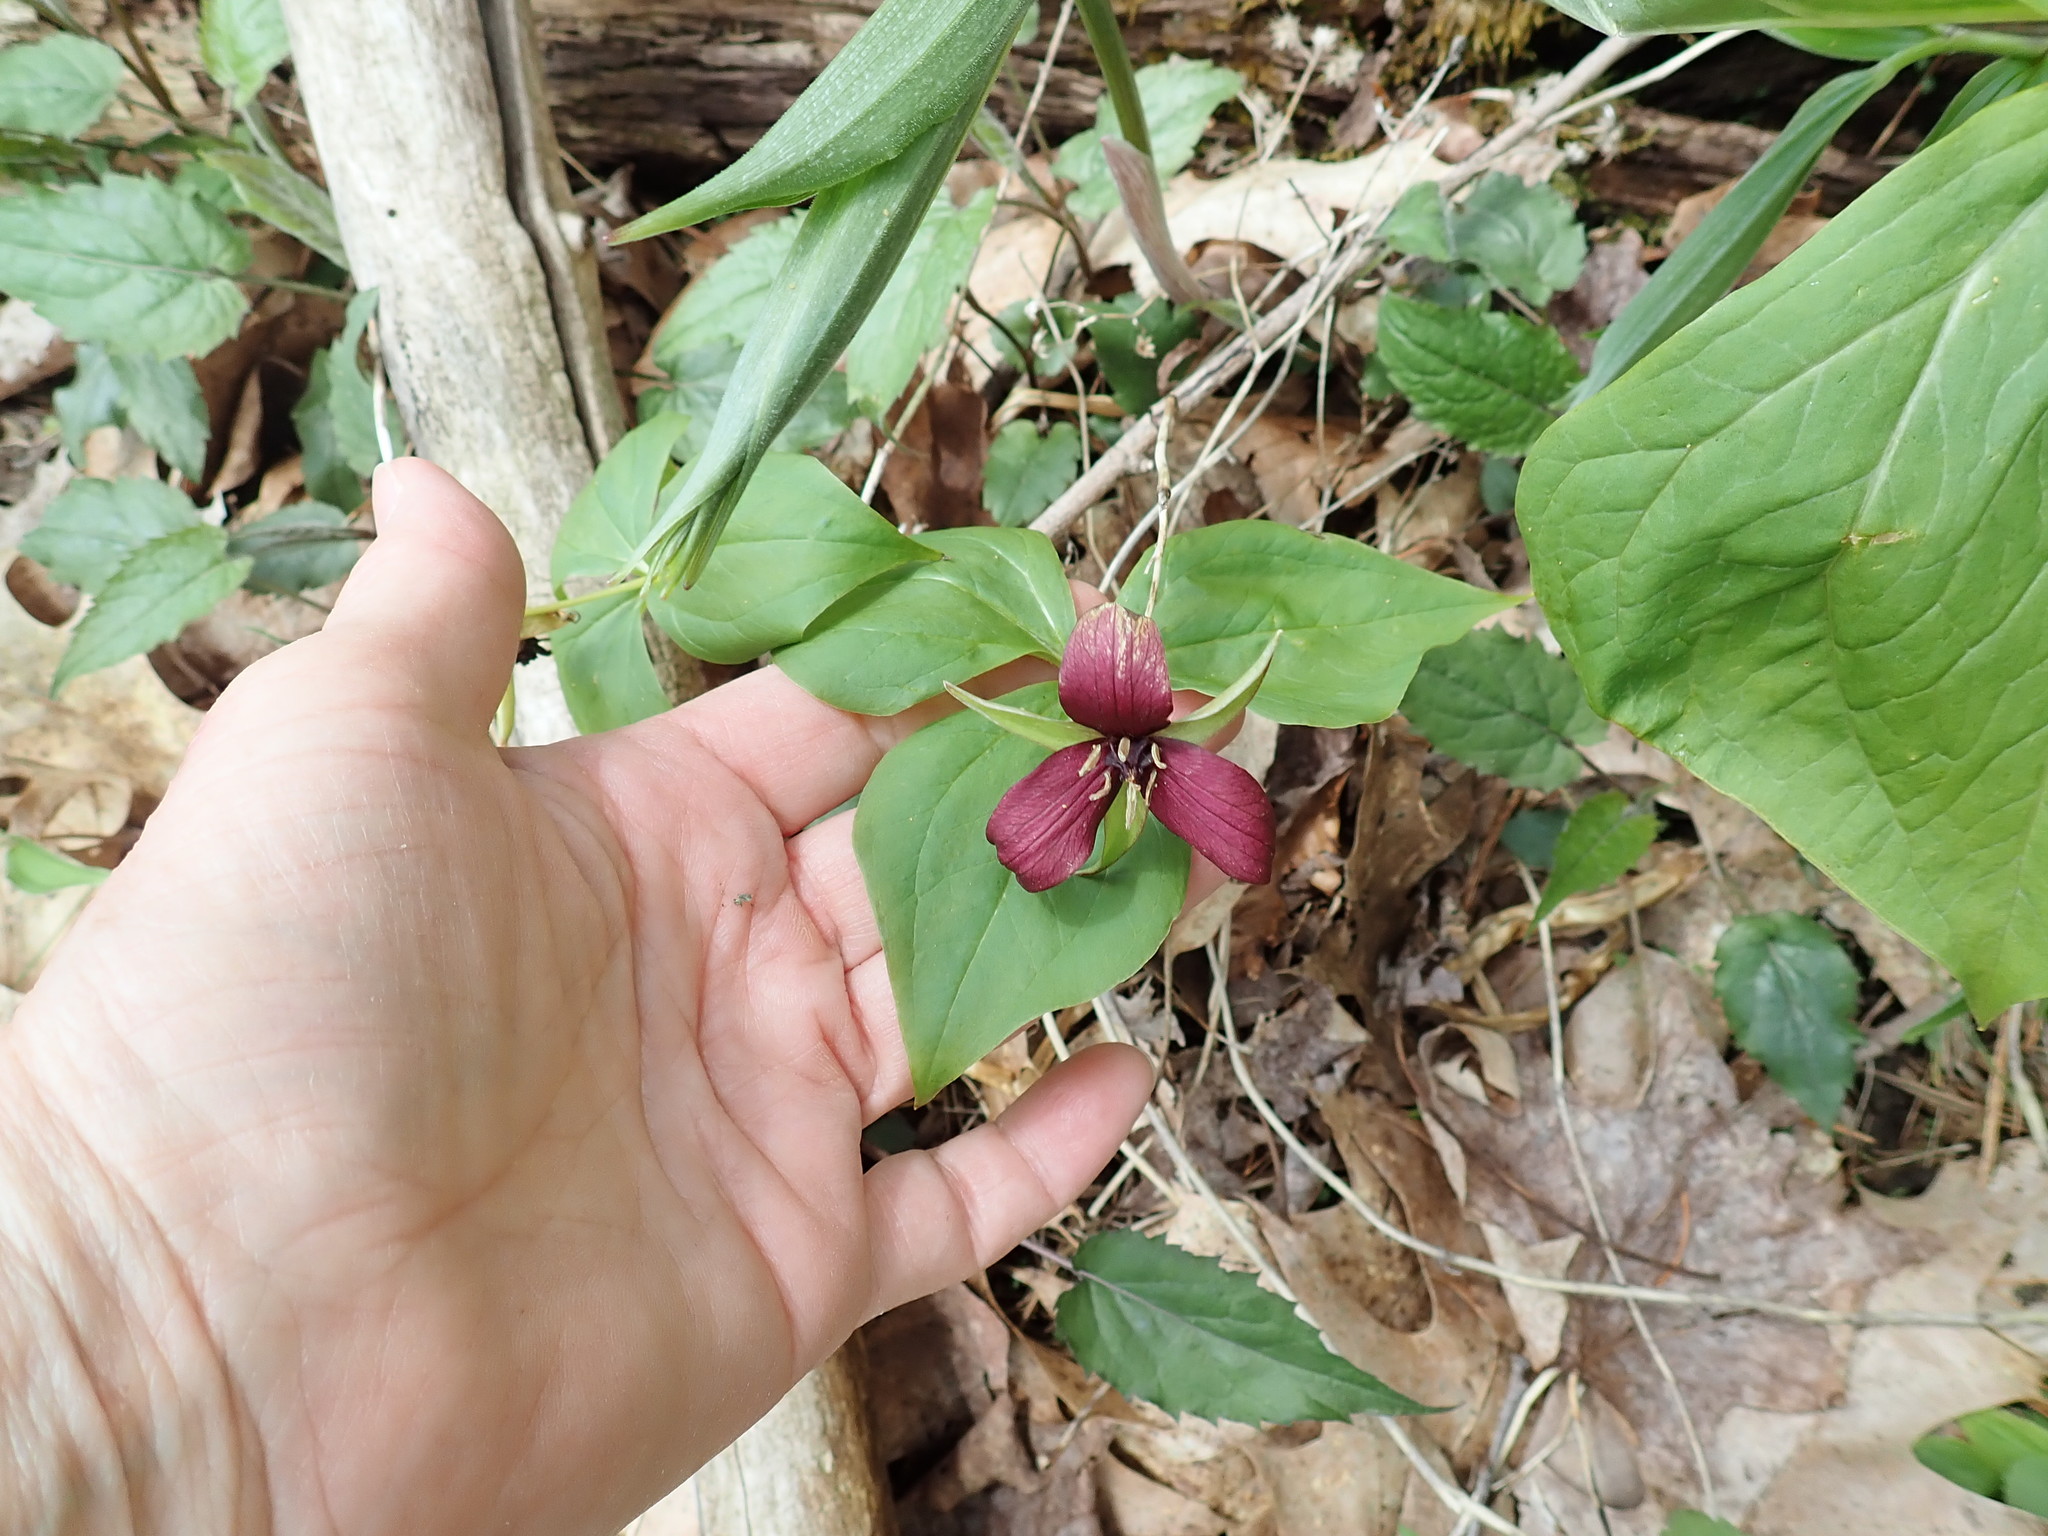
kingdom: Plantae
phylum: Tracheophyta
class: Liliopsida
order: Liliales
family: Melanthiaceae
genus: Trillium
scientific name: Trillium erectum
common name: Purple trillium
